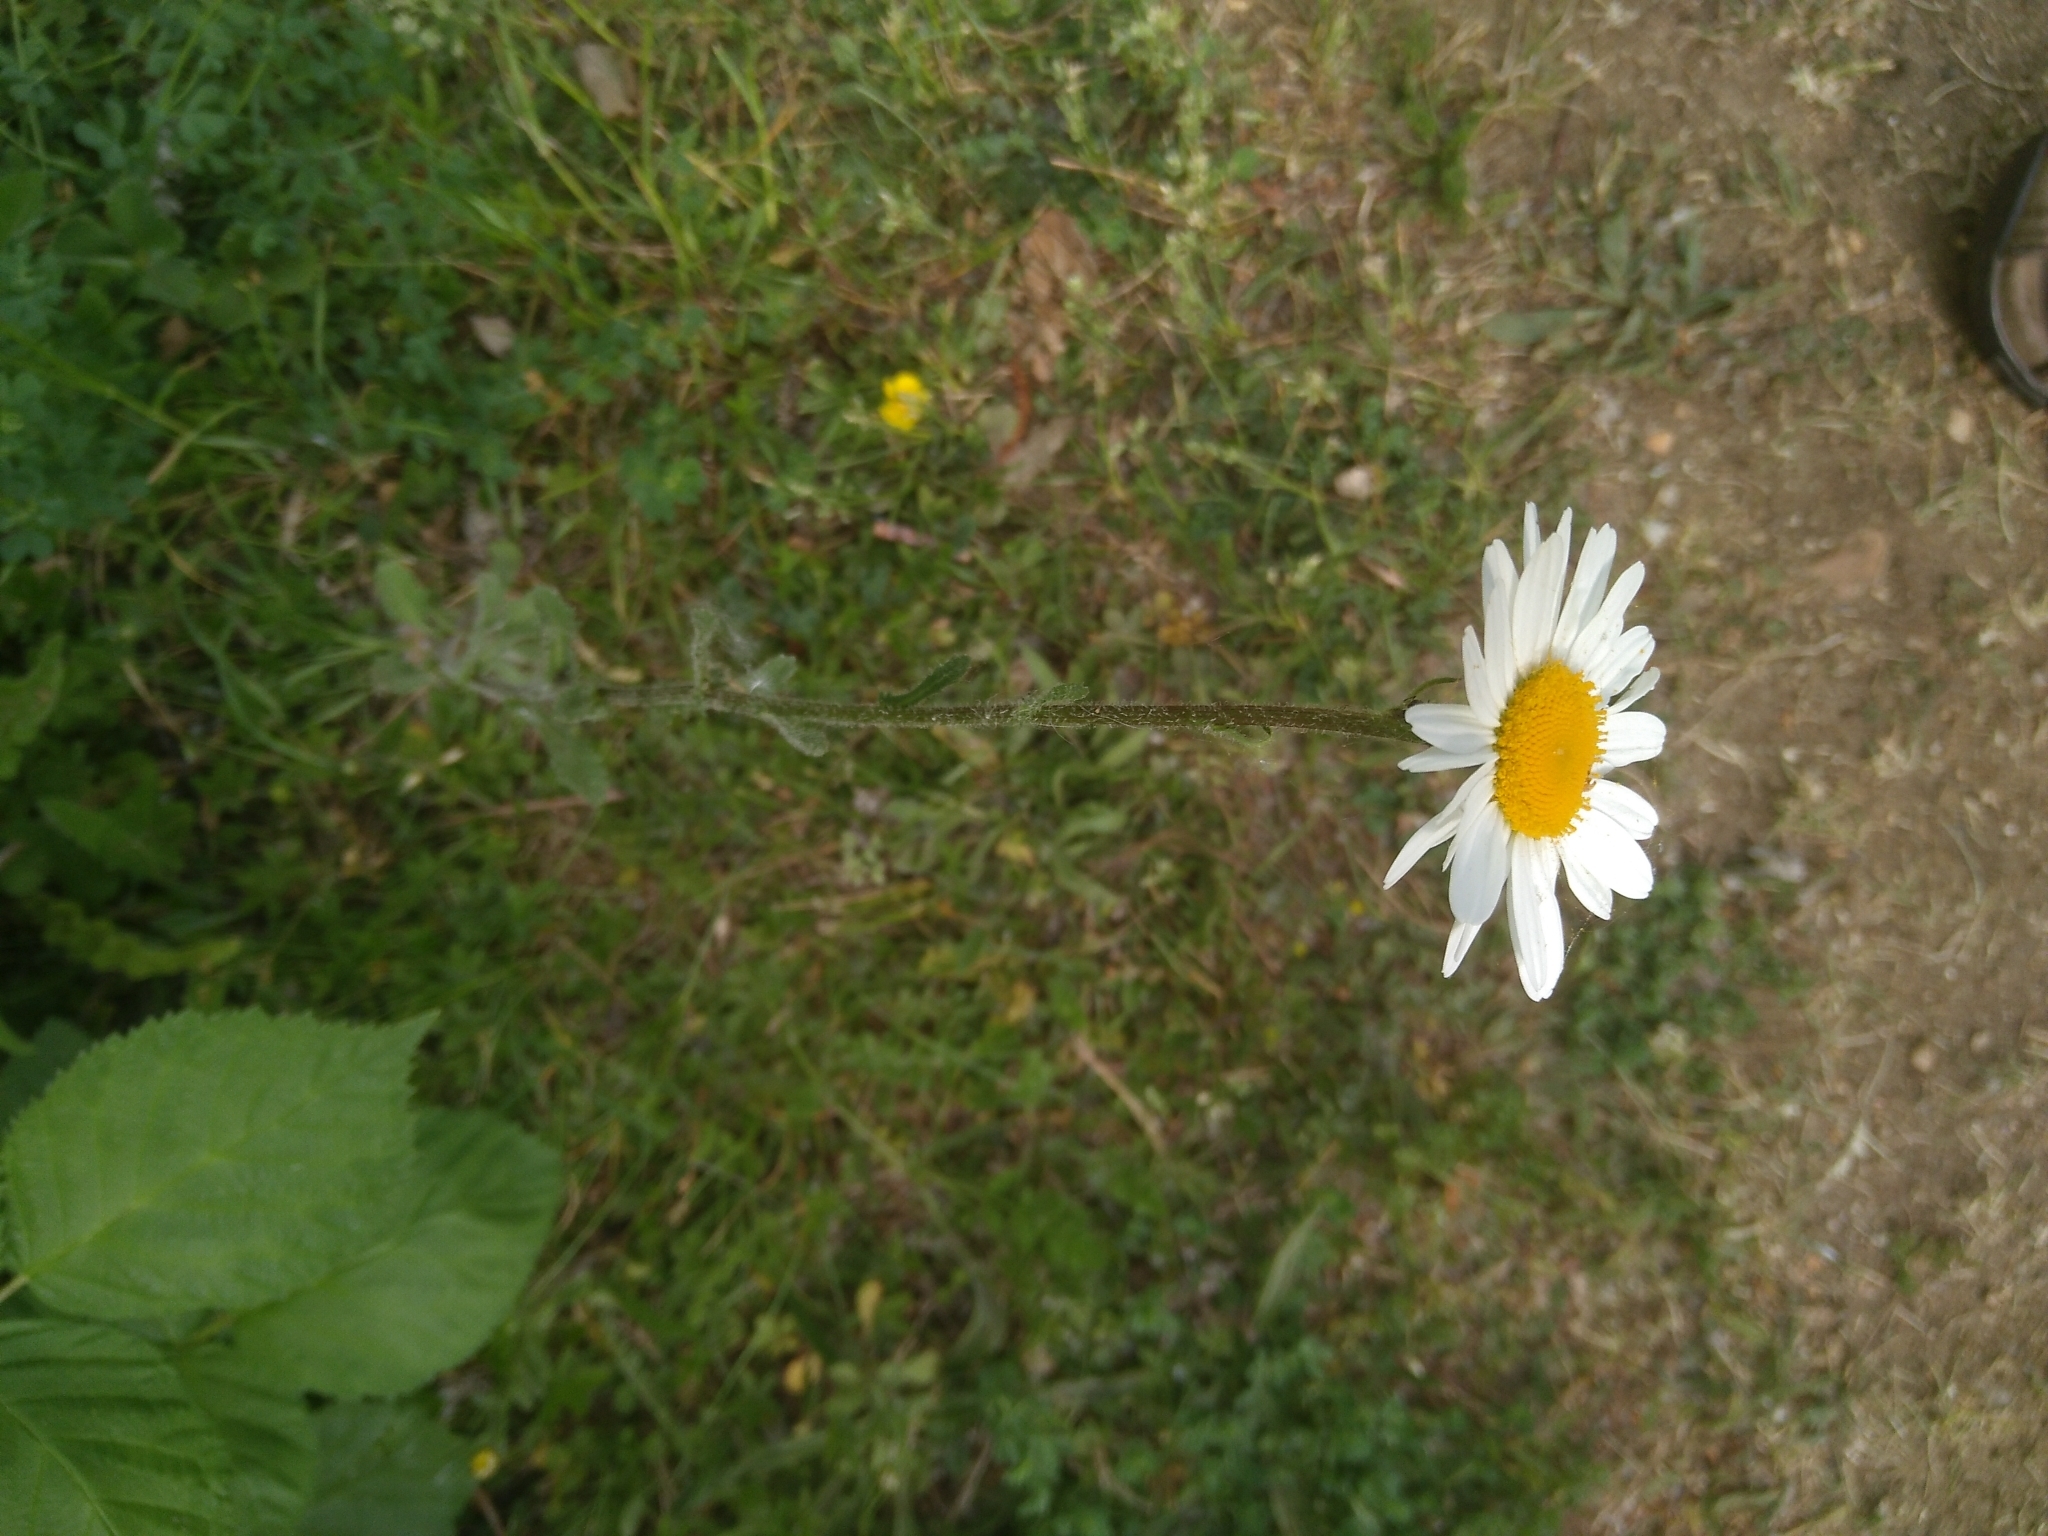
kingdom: Plantae
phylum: Tracheophyta
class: Magnoliopsida
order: Asterales
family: Asteraceae
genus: Leucanthemum
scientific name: Leucanthemum vulgare
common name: Oxeye daisy
